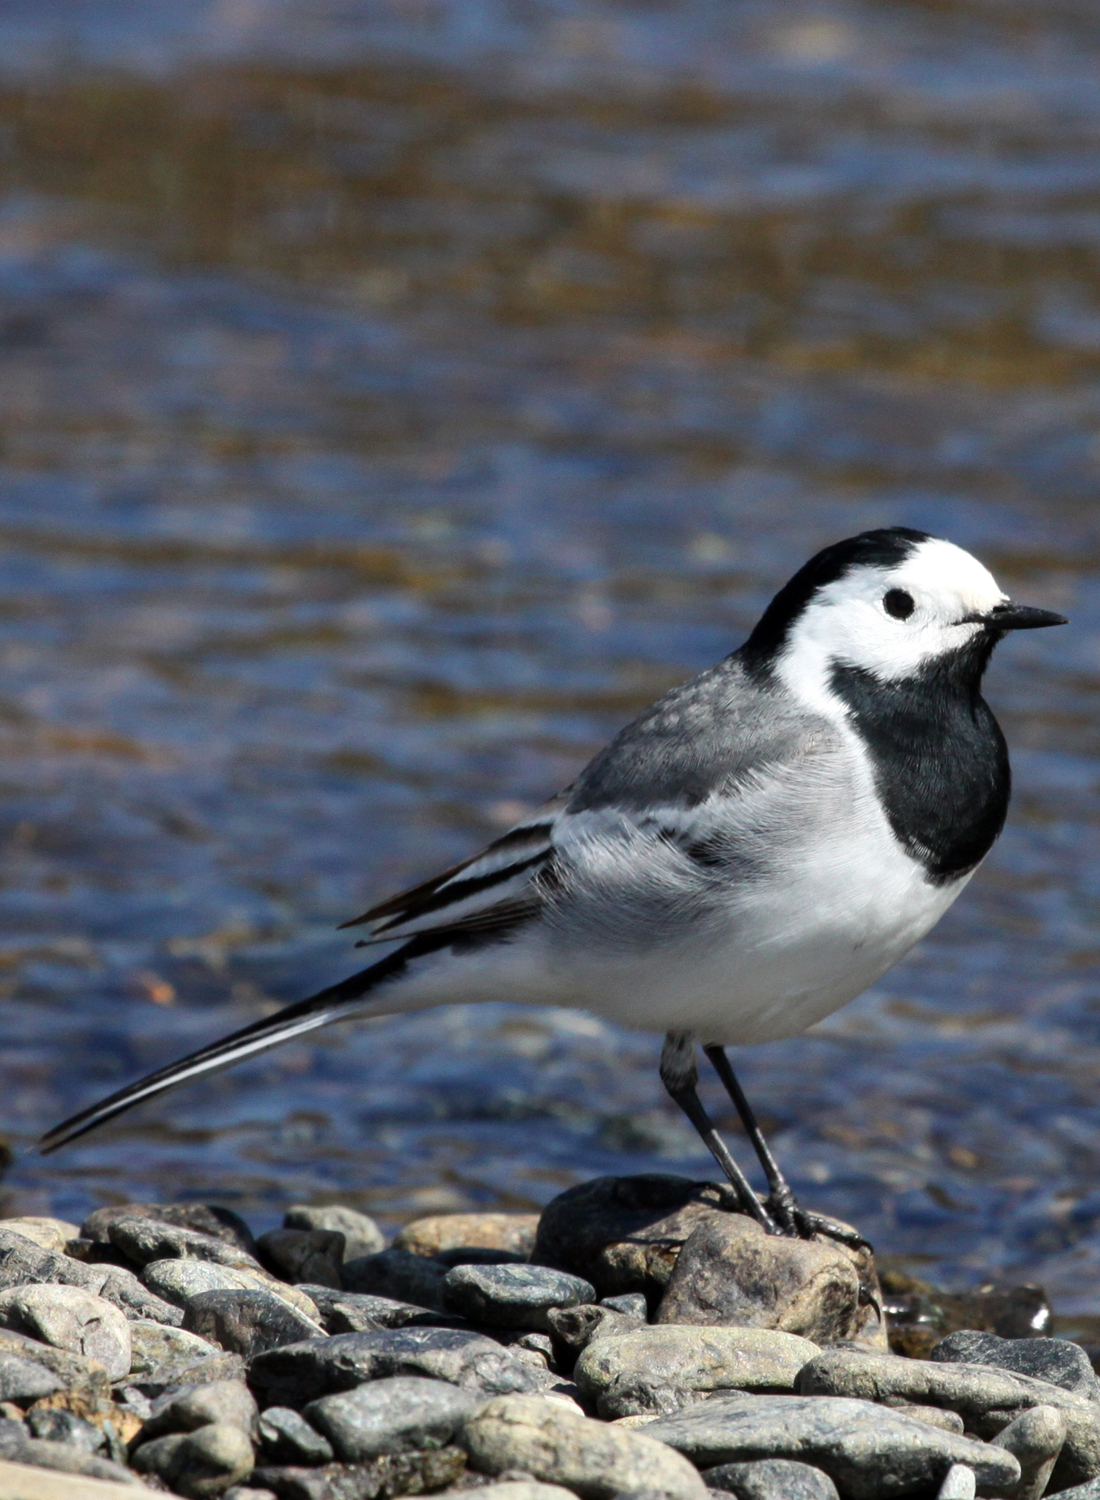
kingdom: Animalia
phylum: Chordata
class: Aves
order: Passeriformes
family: Motacillidae
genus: Motacilla
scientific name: Motacilla alba
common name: White wagtail
